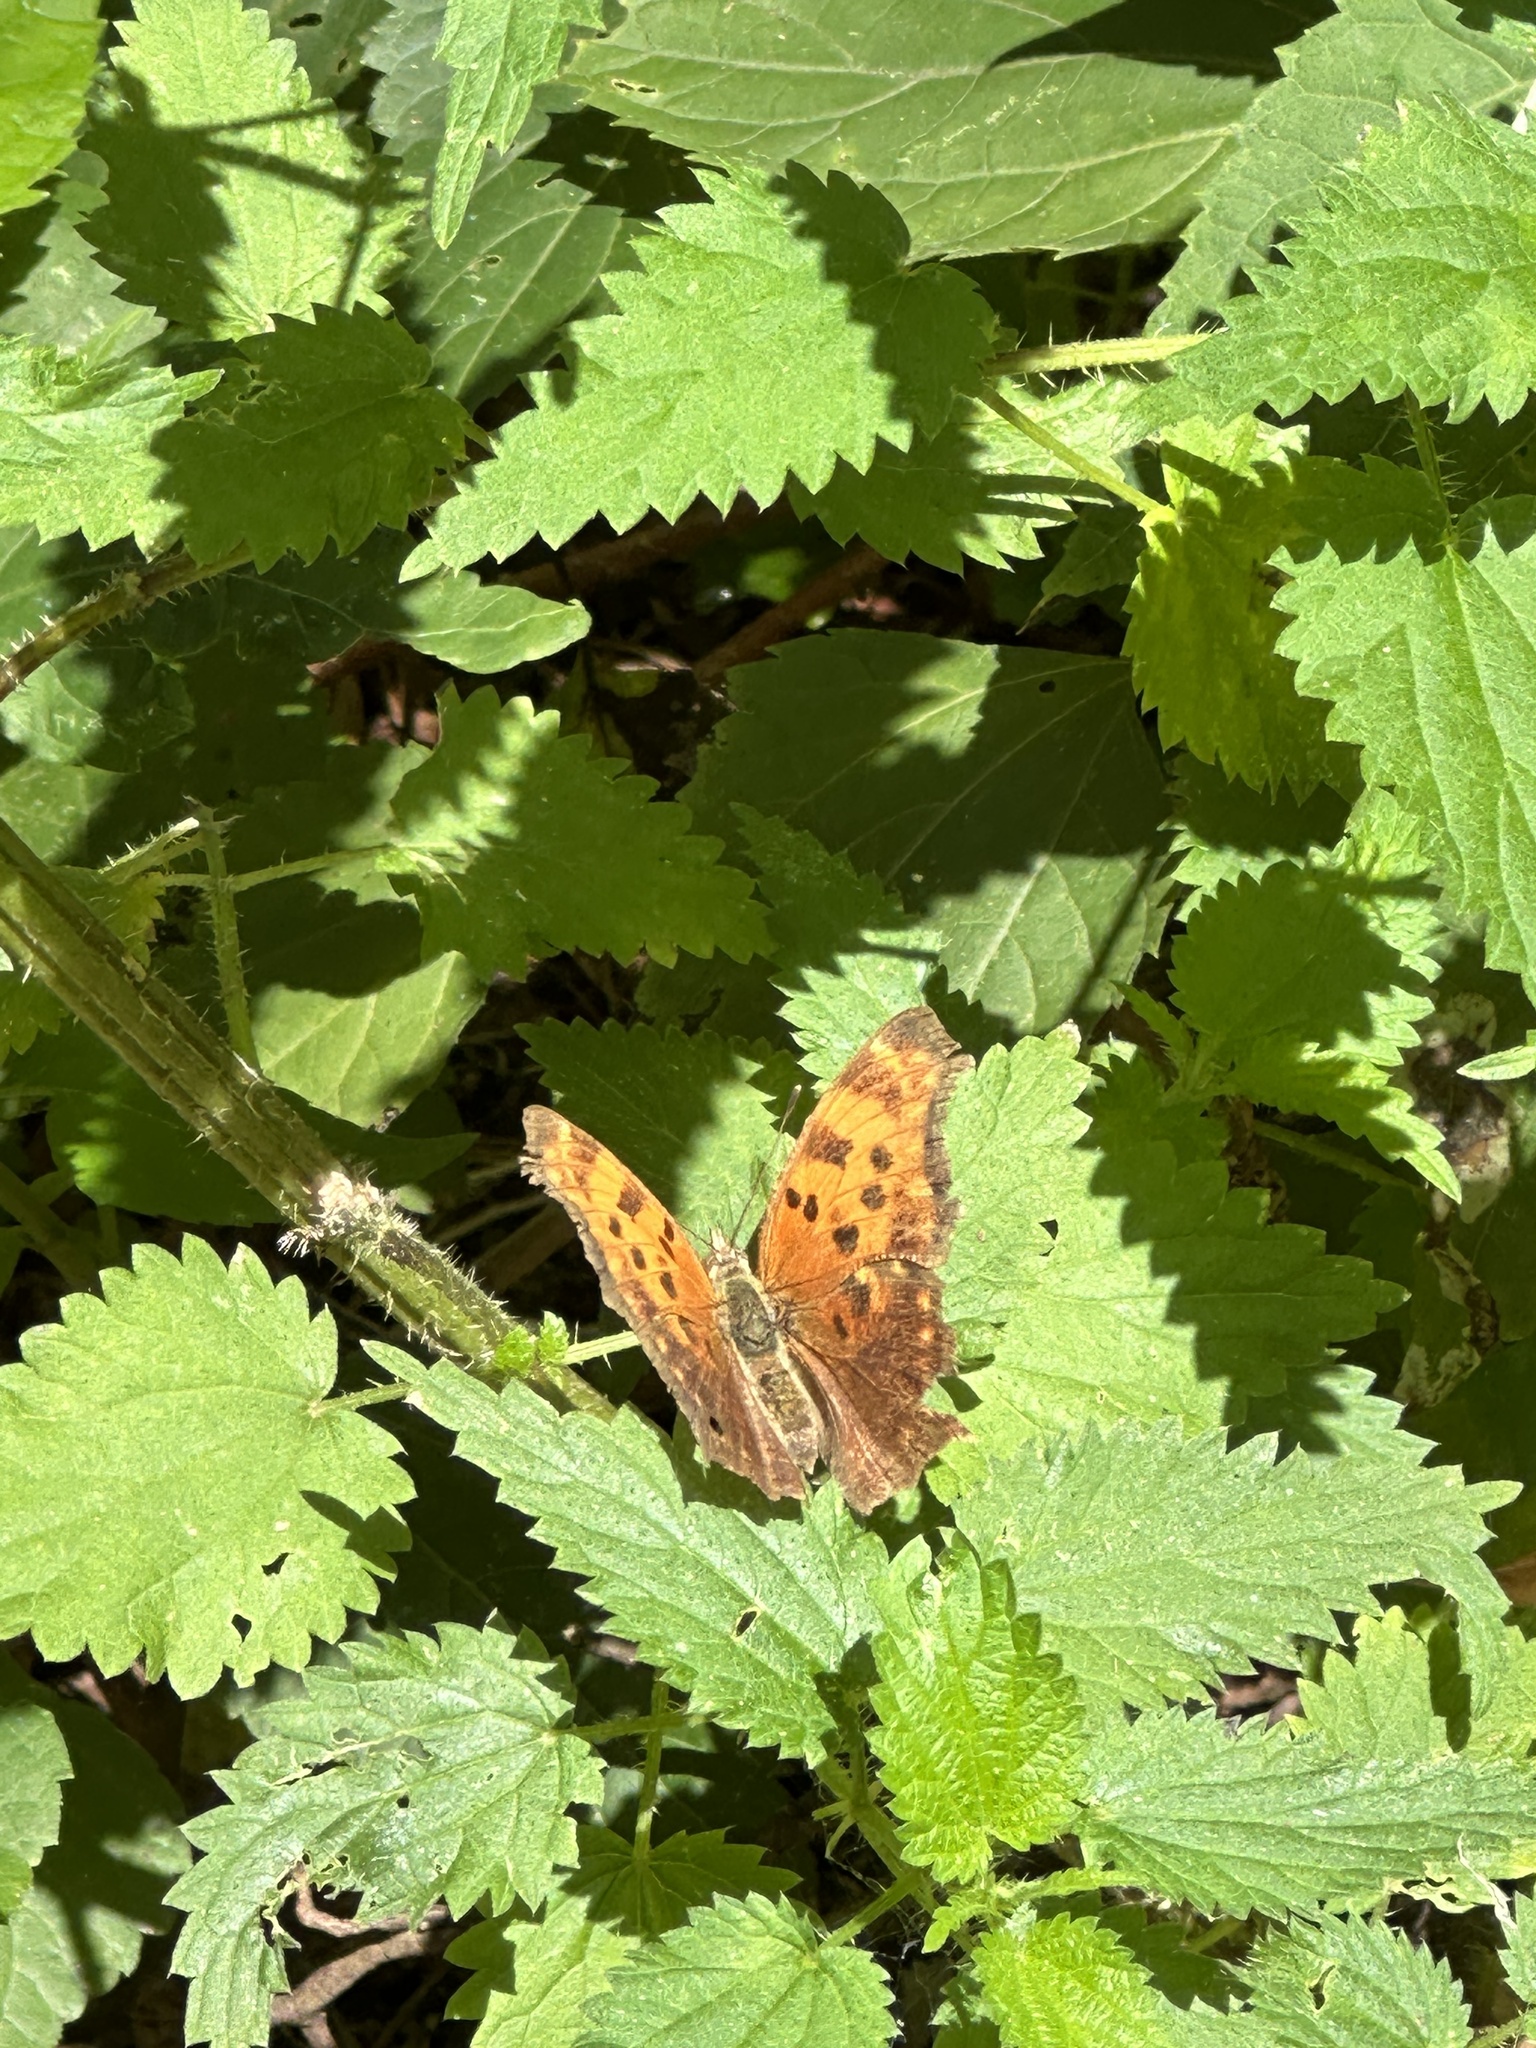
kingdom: Animalia
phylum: Arthropoda
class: Insecta
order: Lepidoptera
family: Nymphalidae
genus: Polygonia
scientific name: Polygonia comma
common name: Eastern comma
